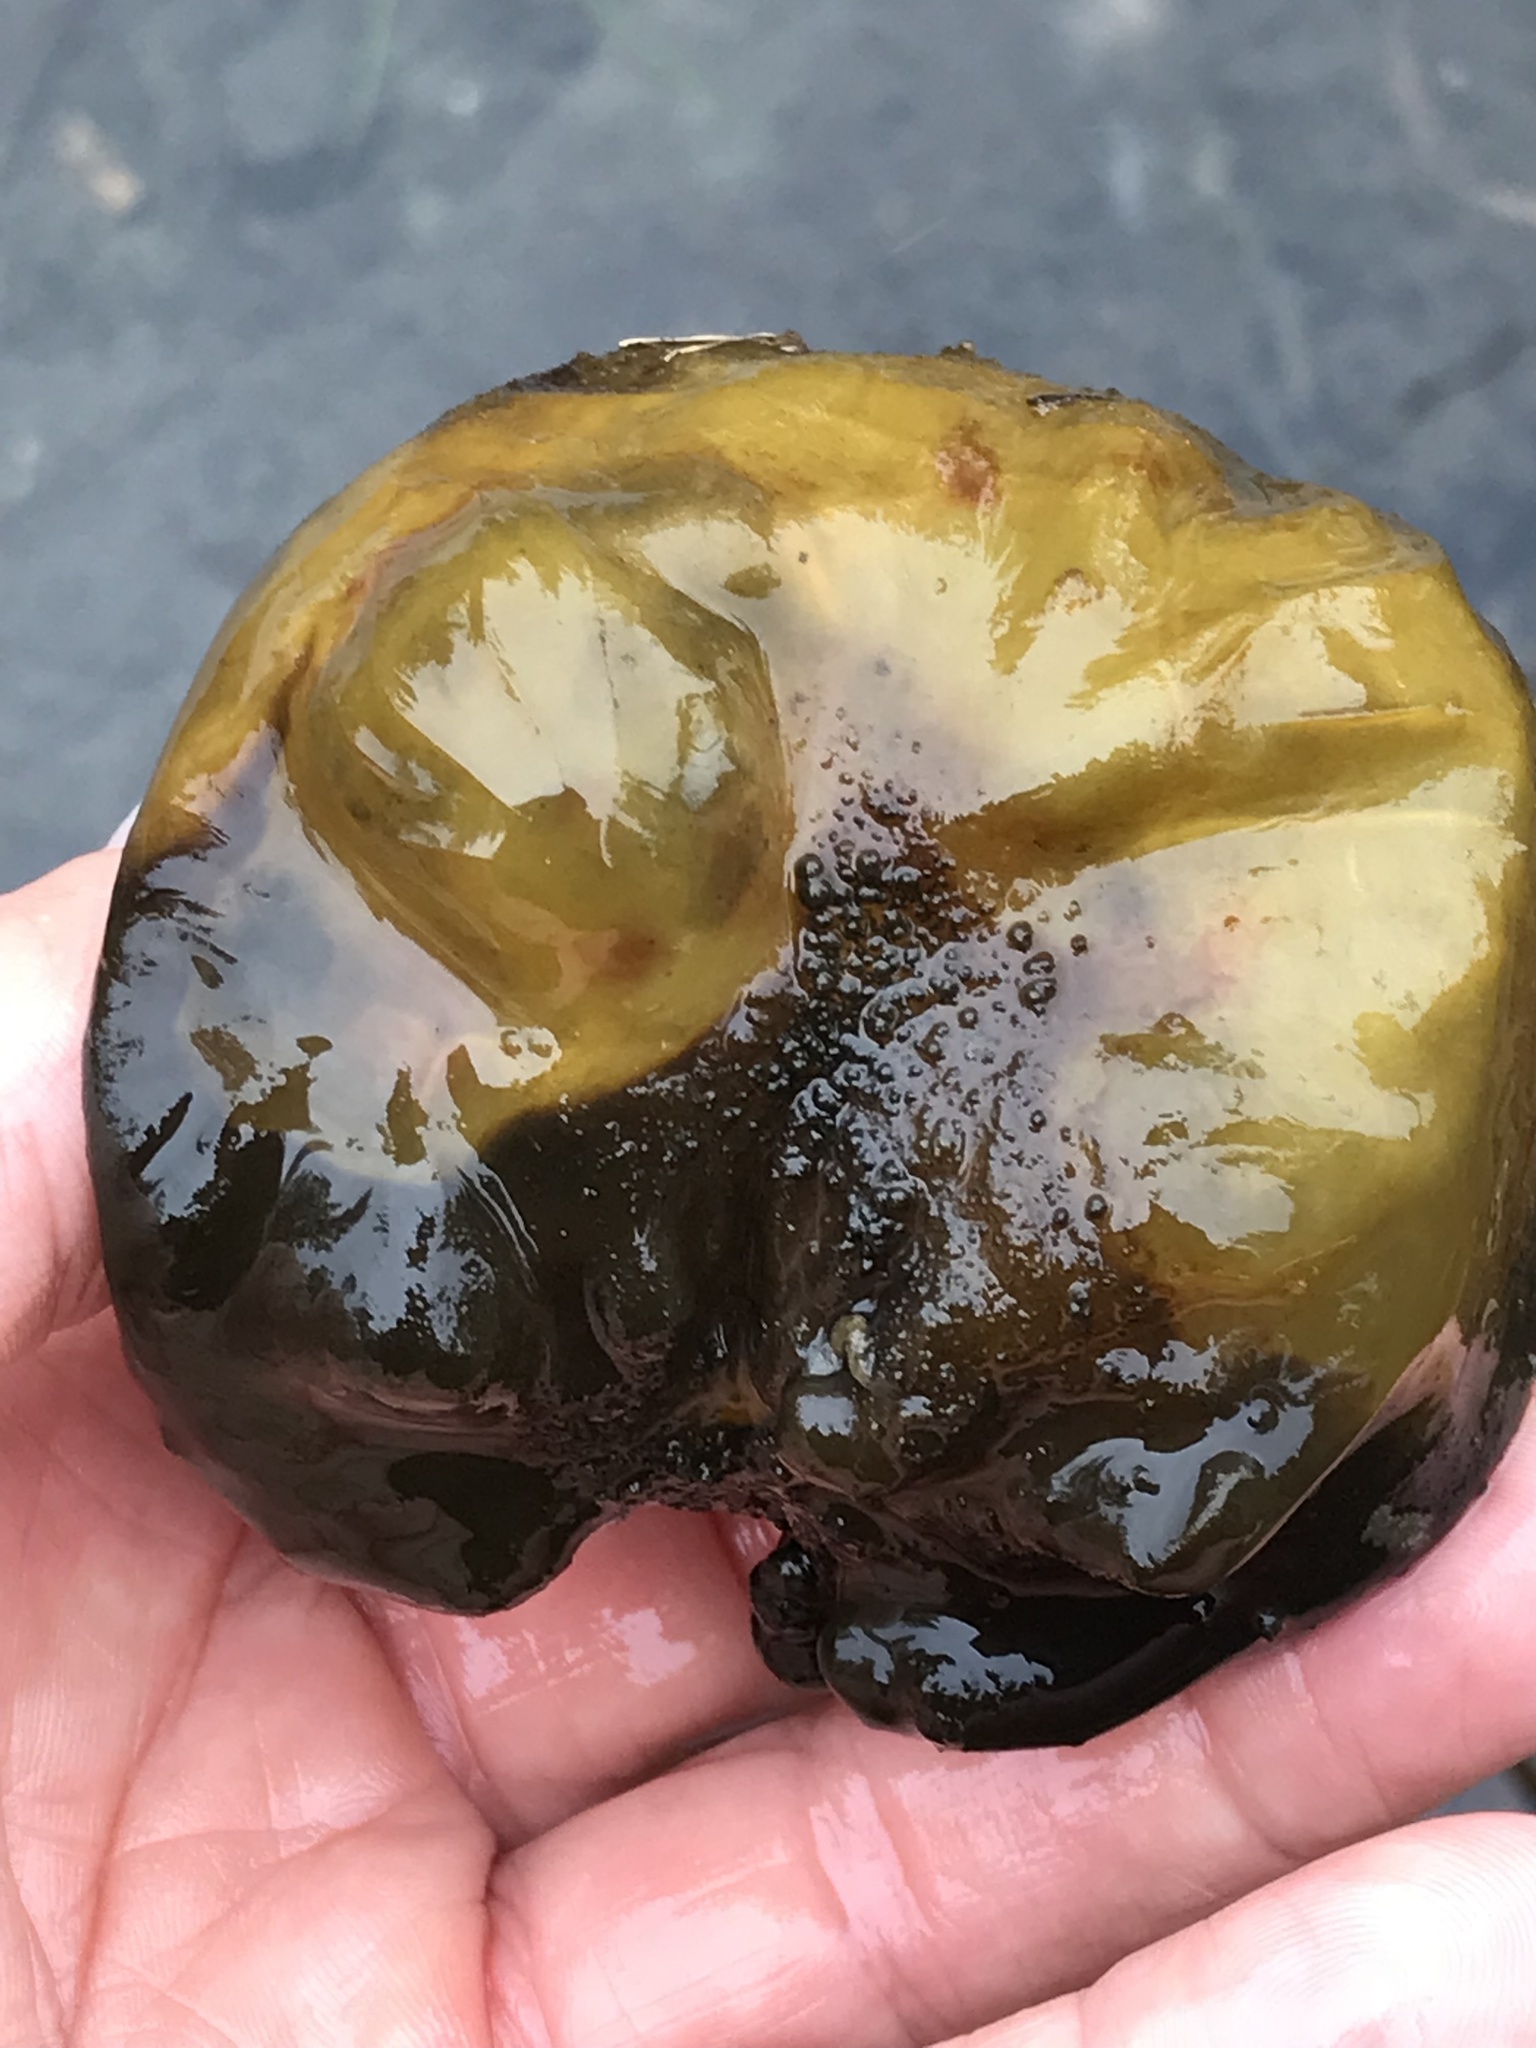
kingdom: Bacteria
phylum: Cyanobacteria
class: Cyanobacteriia
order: Cyanobacteriales
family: Nostocaceae
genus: Nostoc
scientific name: Nostoc pruniforme
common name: Mare's eggs
